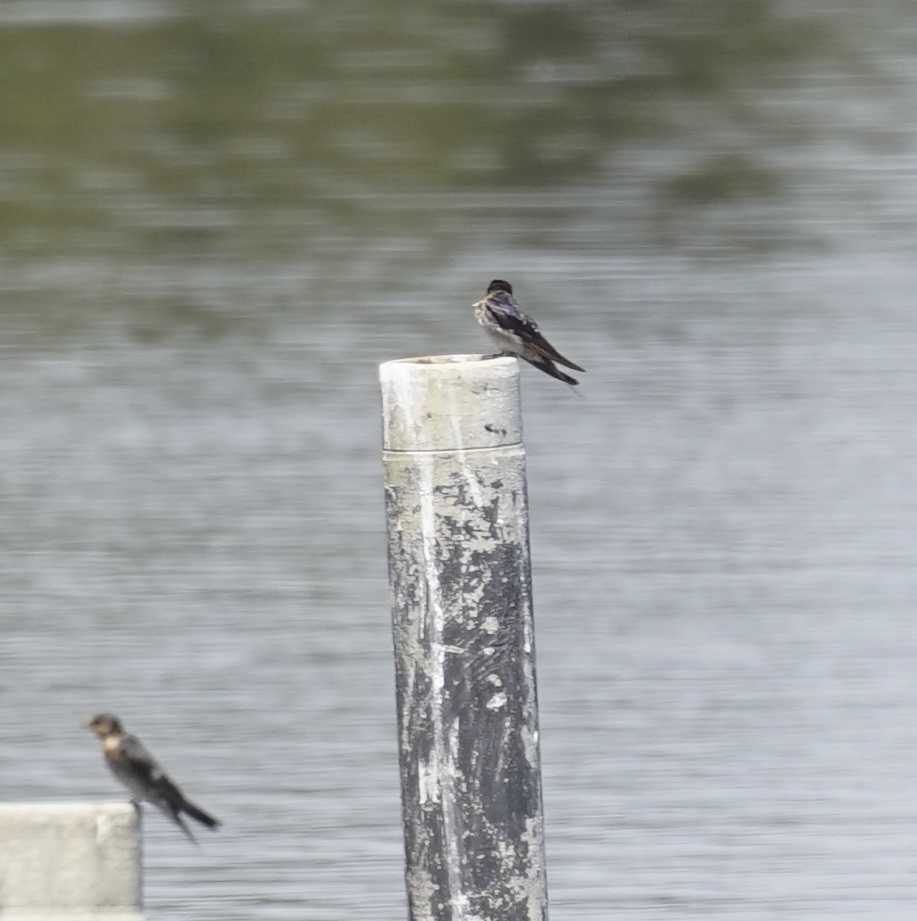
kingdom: Animalia
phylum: Chordata
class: Aves
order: Passeriformes
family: Hirundinidae
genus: Hirundo
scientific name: Hirundo neoxena
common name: Welcome swallow
